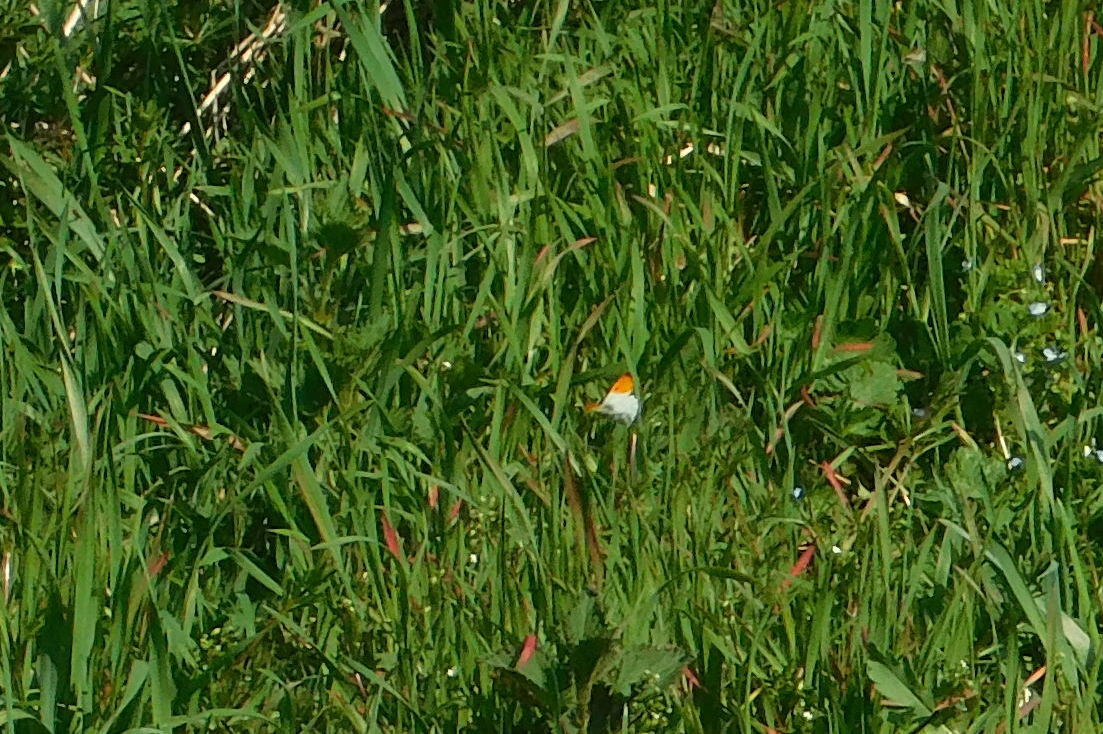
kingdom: Animalia
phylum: Arthropoda
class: Insecta
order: Lepidoptera
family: Pieridae
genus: Anthocharis
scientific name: Anthocharis cardamines
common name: Orange-tip
